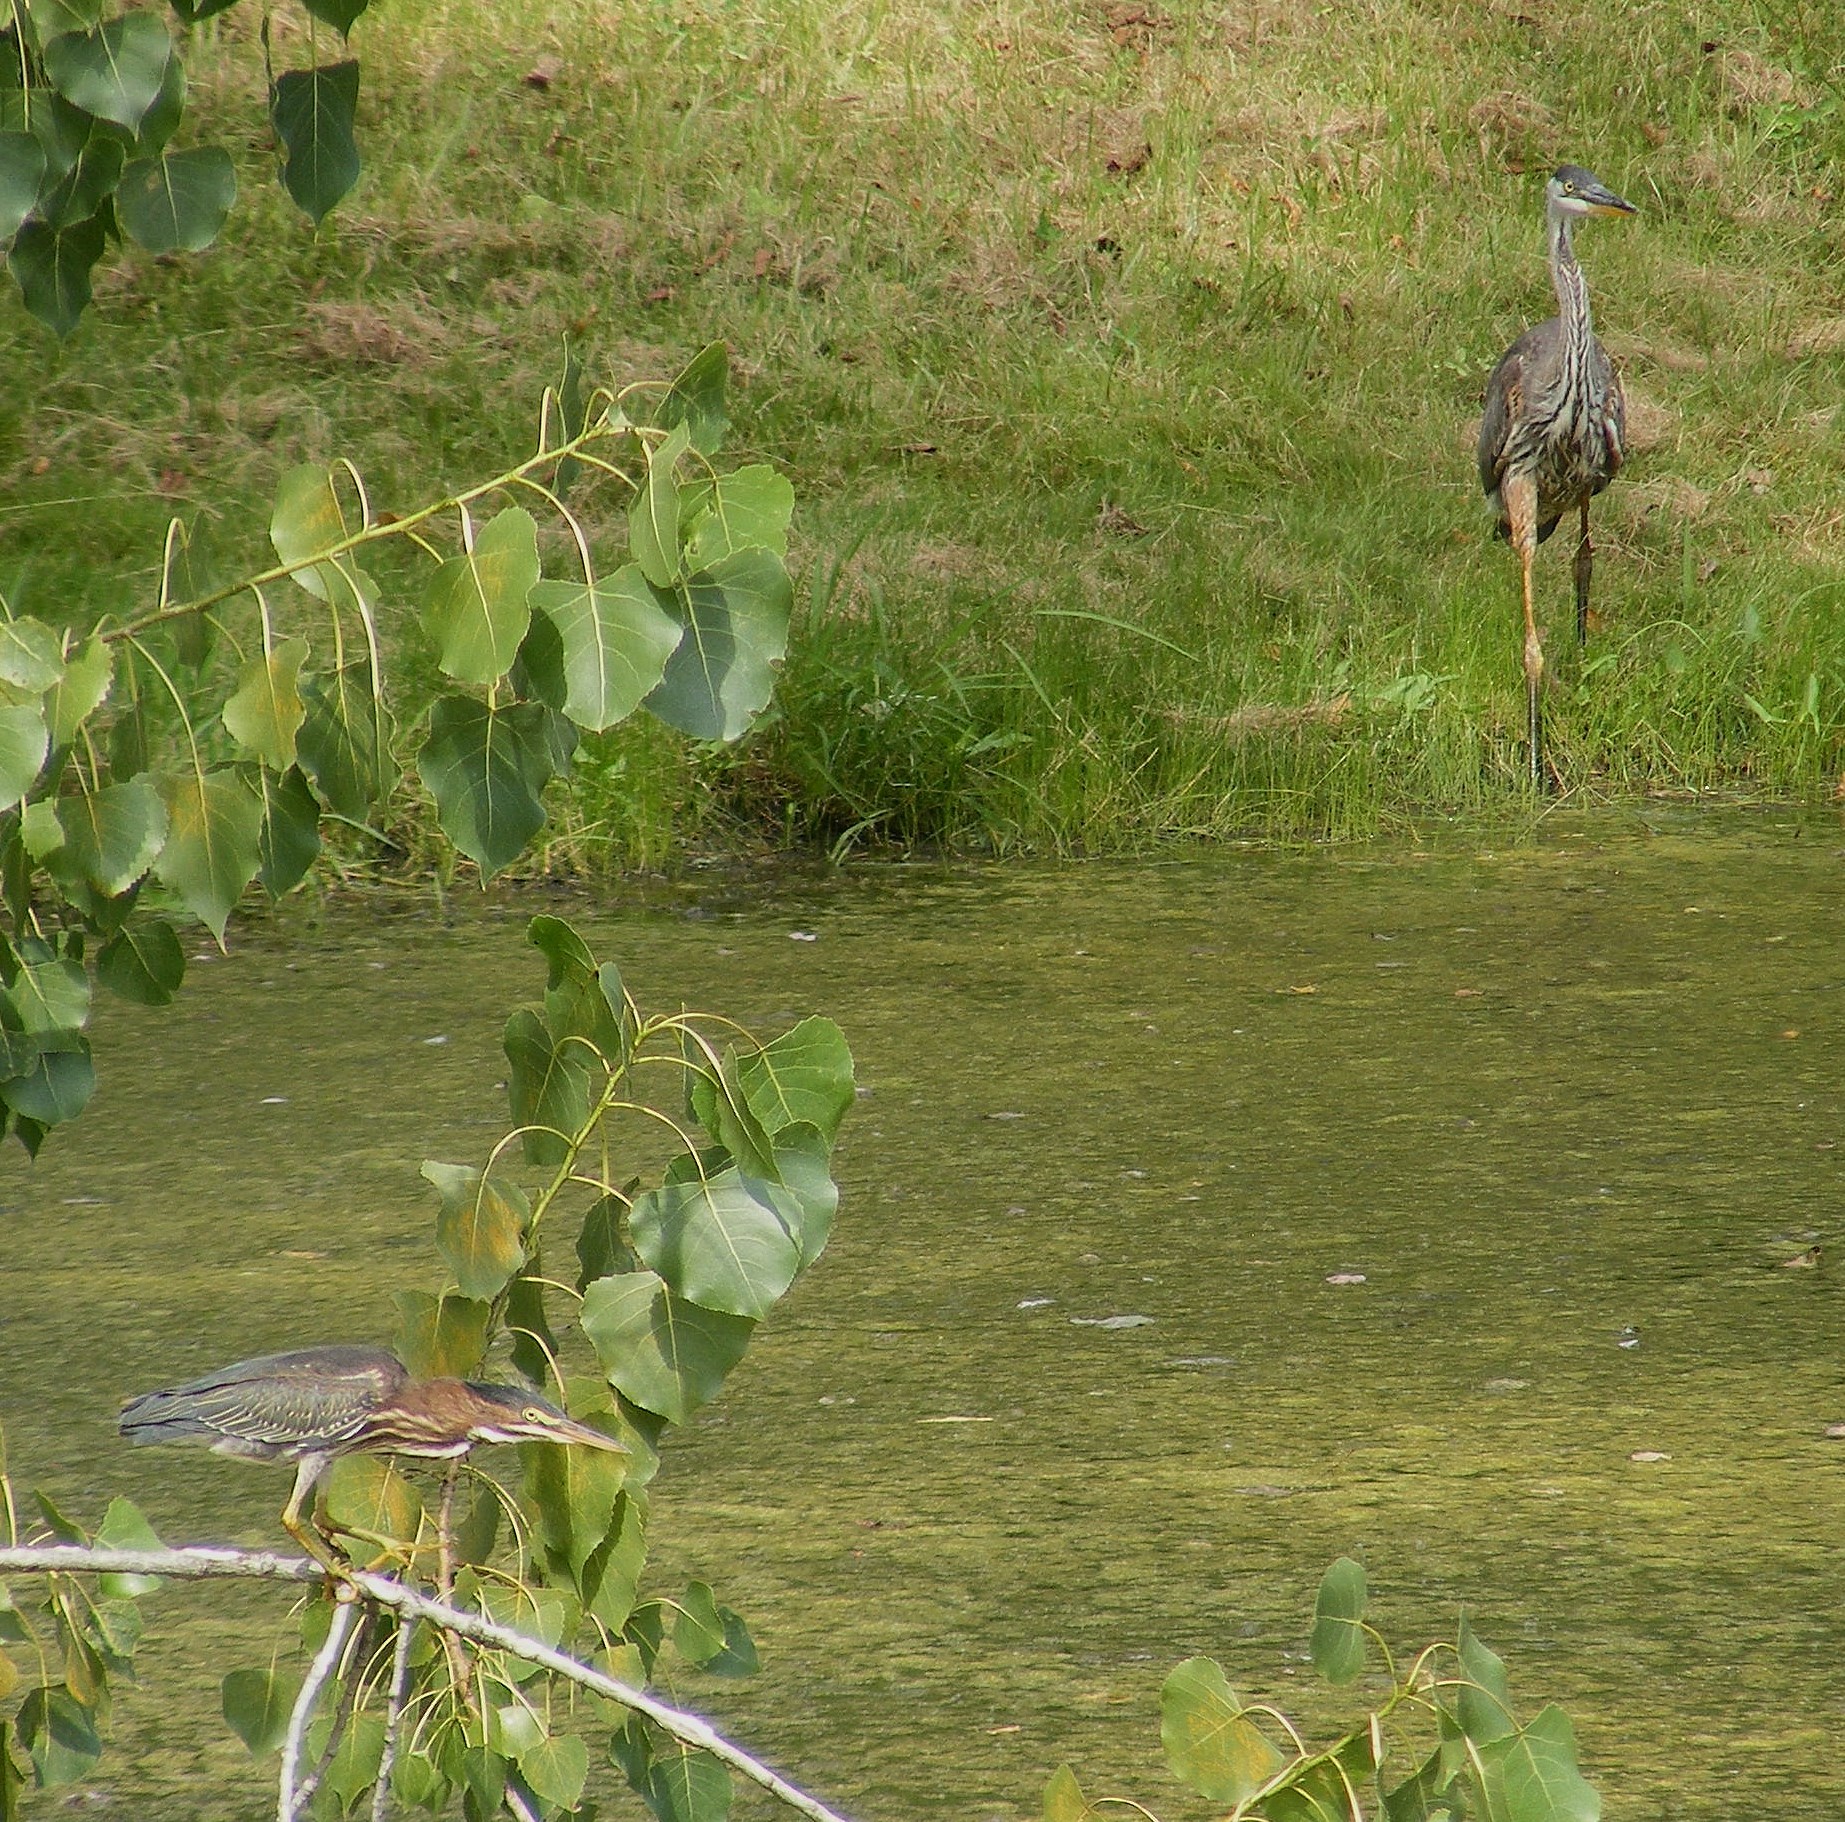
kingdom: Animalia
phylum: Chordata
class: Aves
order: Pelecaniformes
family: Ardeidae
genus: Butorides
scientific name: Butorides virescens
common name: Green heron
